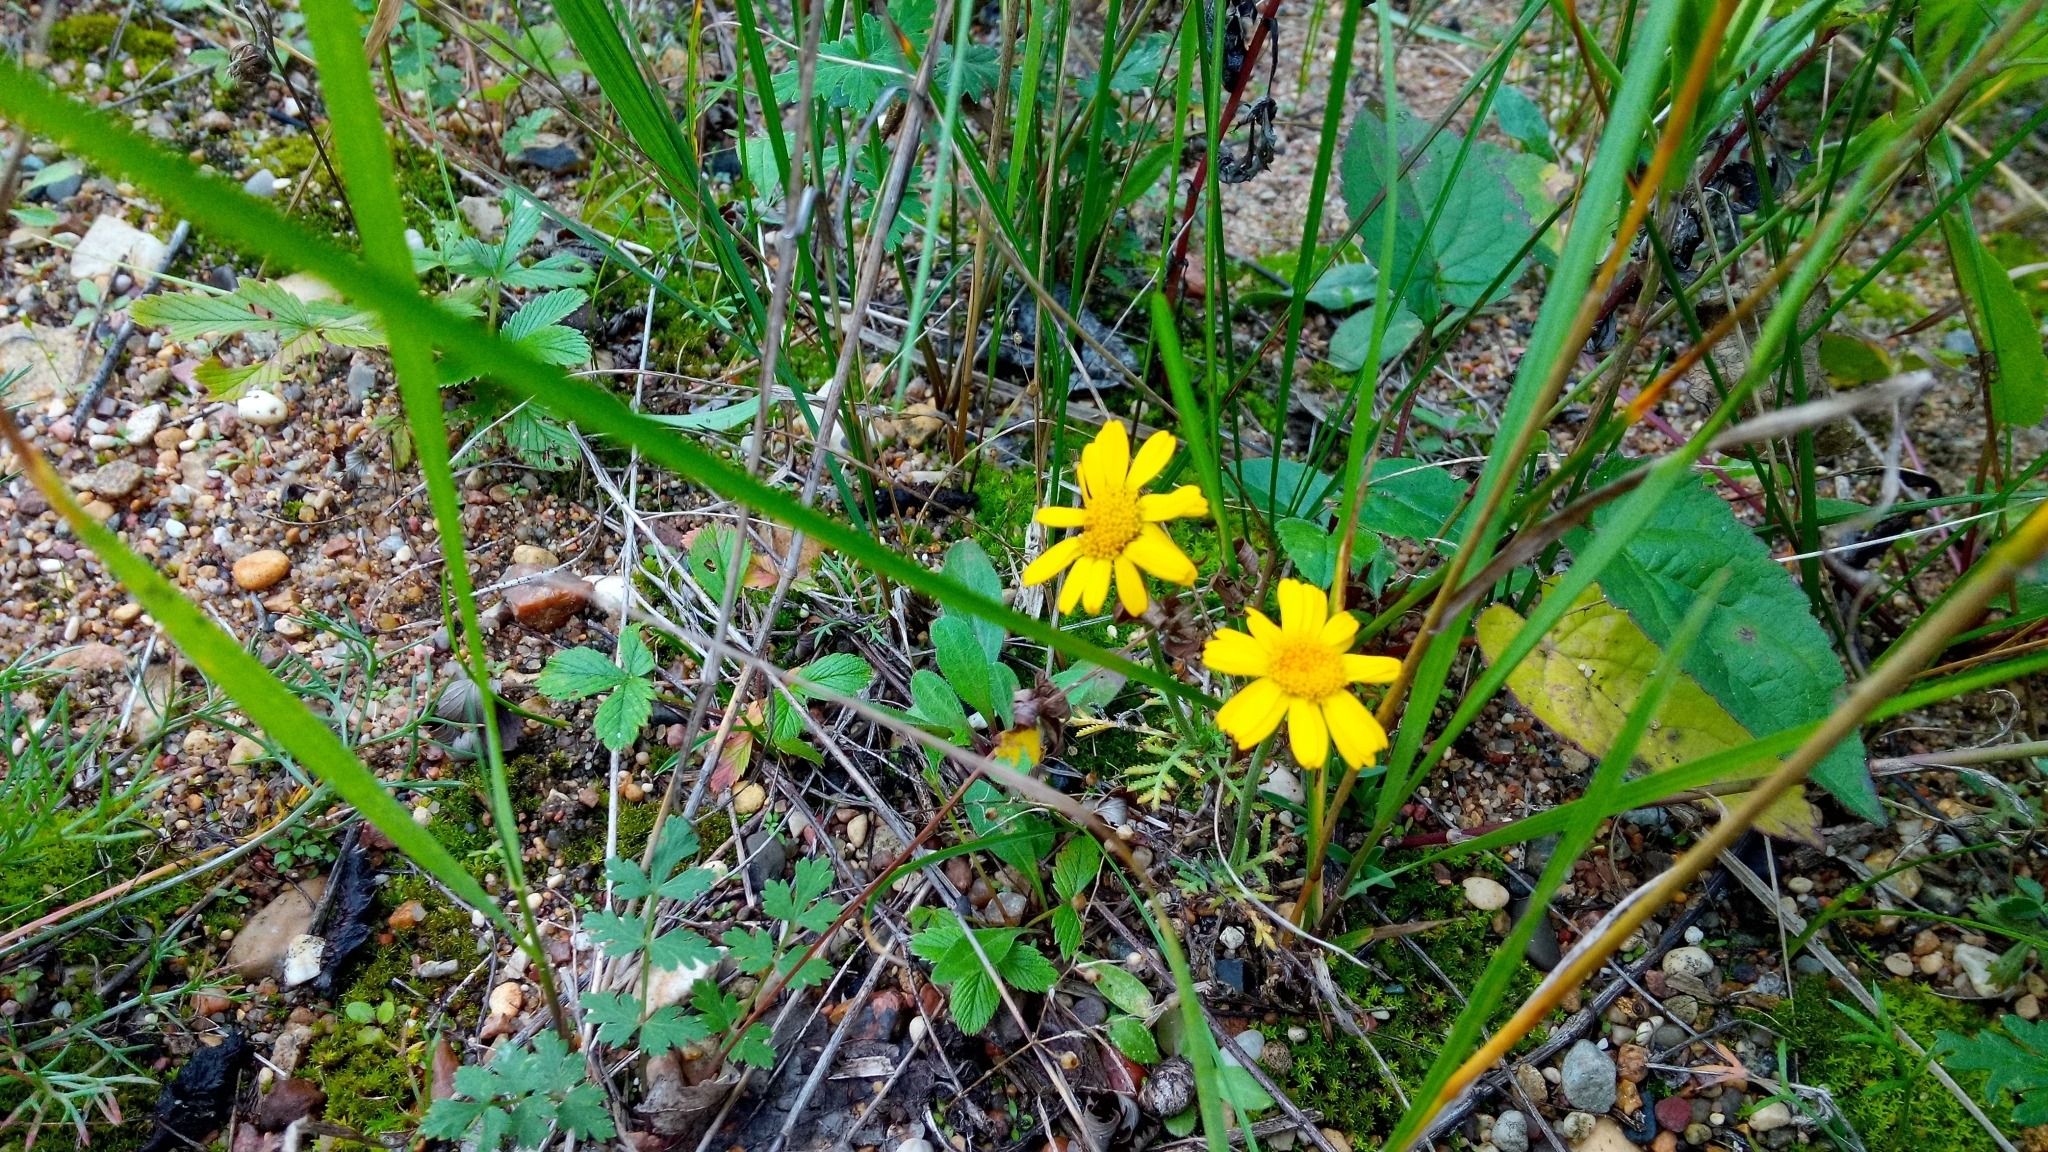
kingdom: Plantae
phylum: Tracheophyta
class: Magnoliopsida
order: Asterales
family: Asteraceae
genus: Cota
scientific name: Cota tinctoria
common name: Golden chamomile
